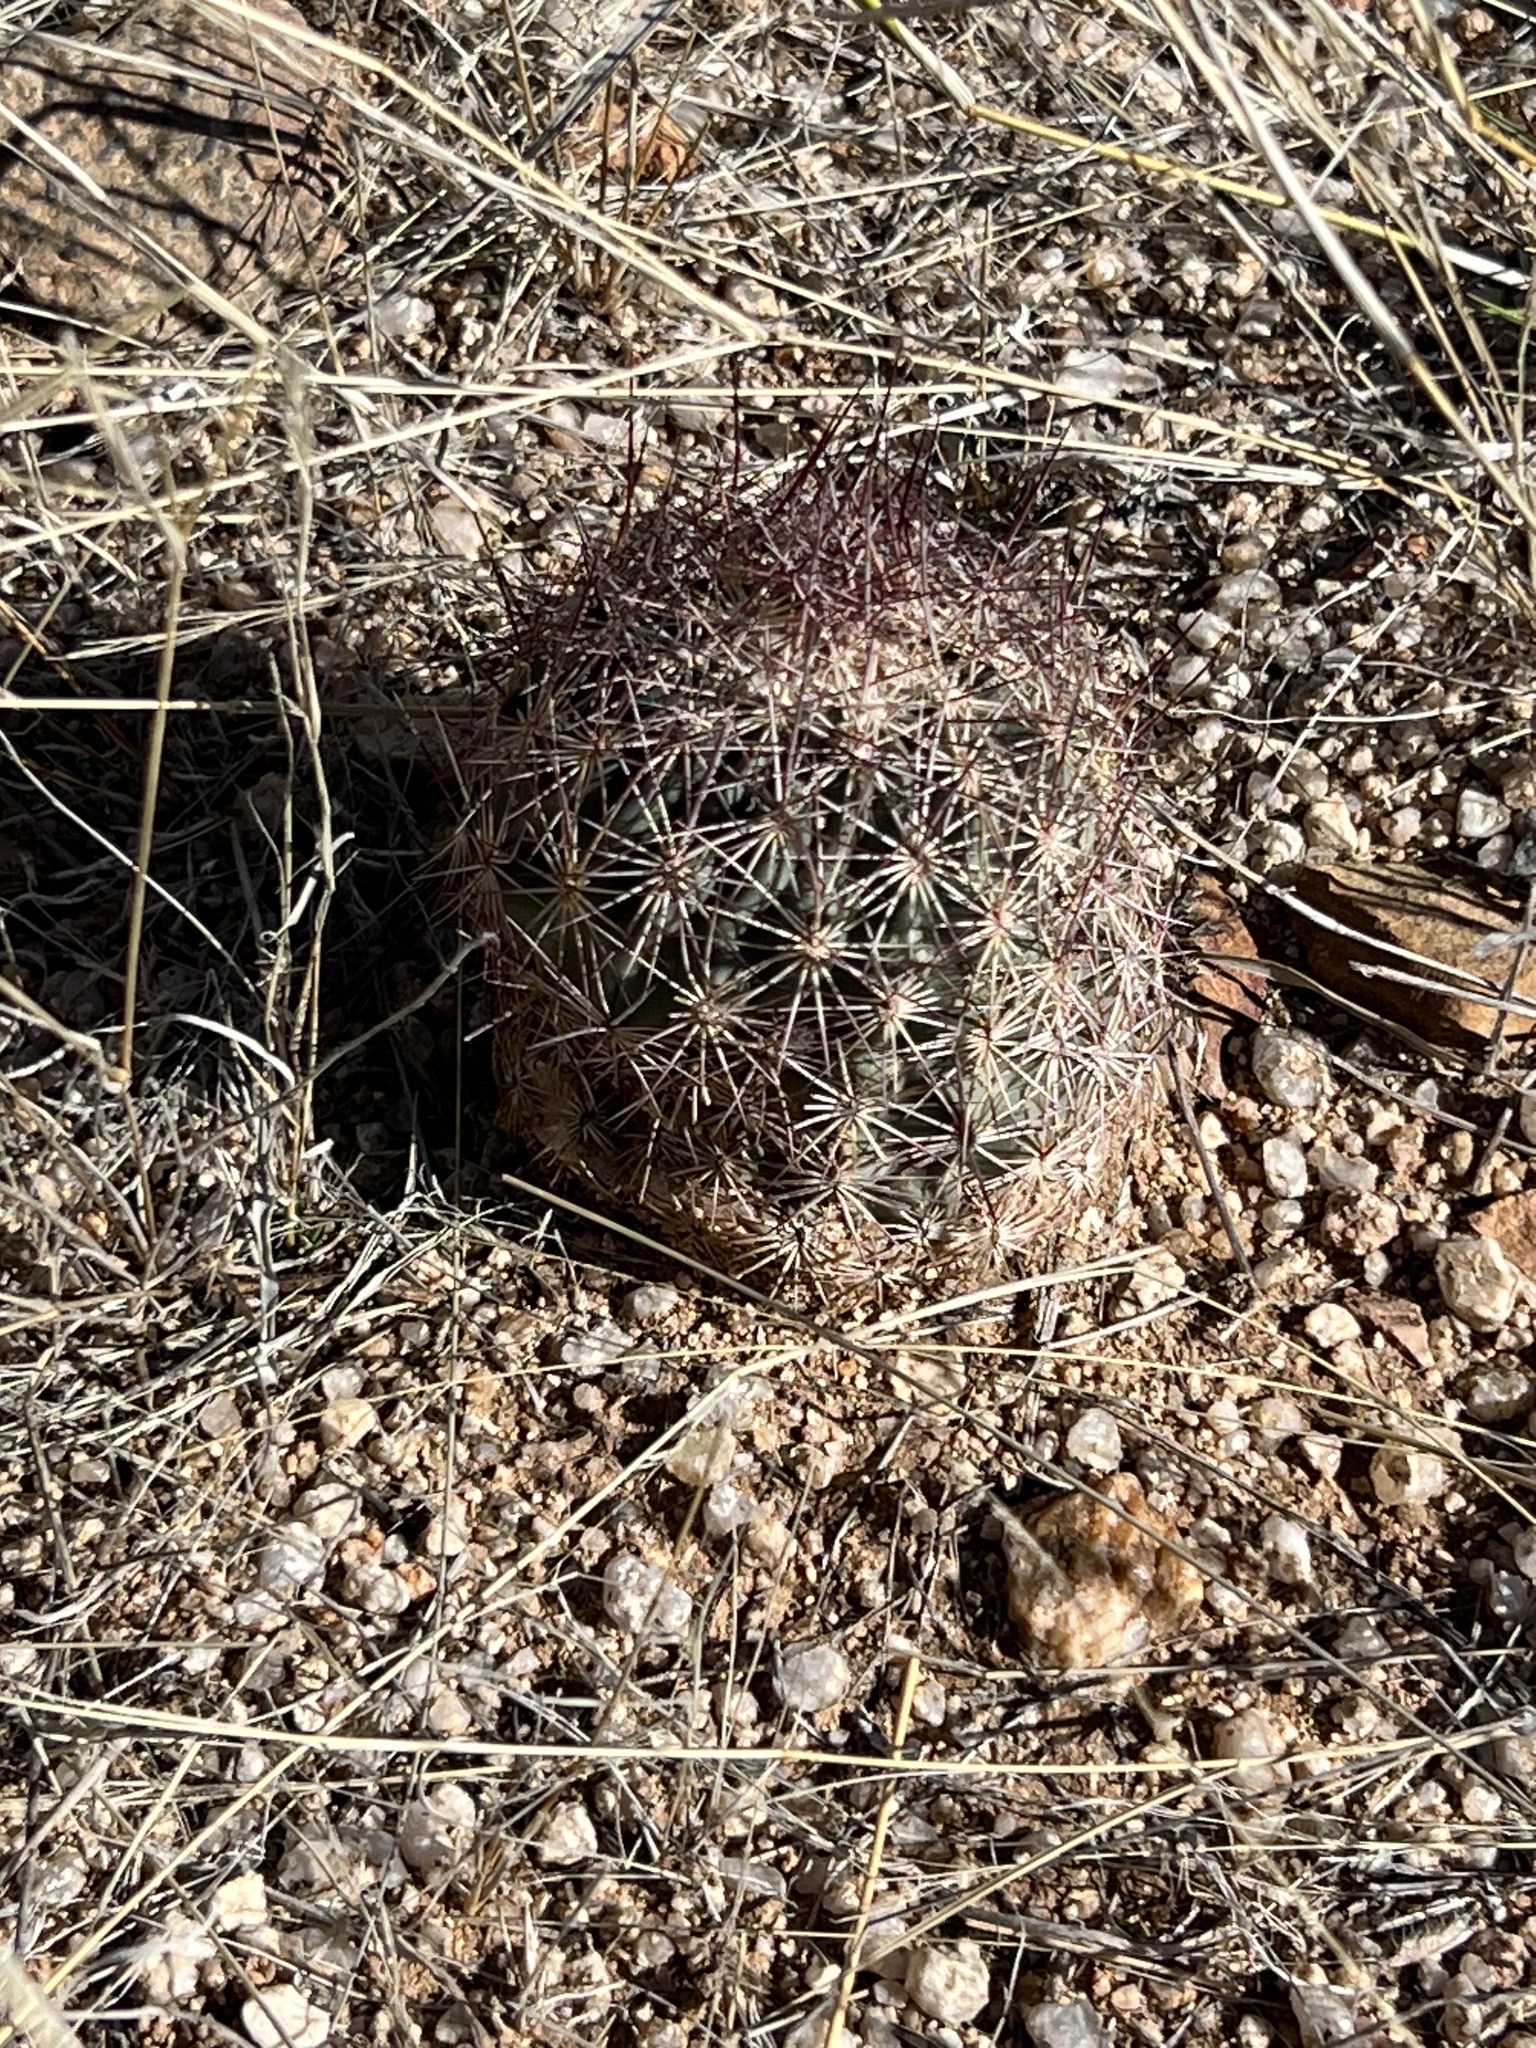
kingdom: Plantae
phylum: Tracheophyta
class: Magnoliopsida
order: Caryophyllales
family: Cactaceae
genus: Sclerocactus
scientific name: Sclerocactus johnsonii
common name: Eight-spine fishhook cactus
